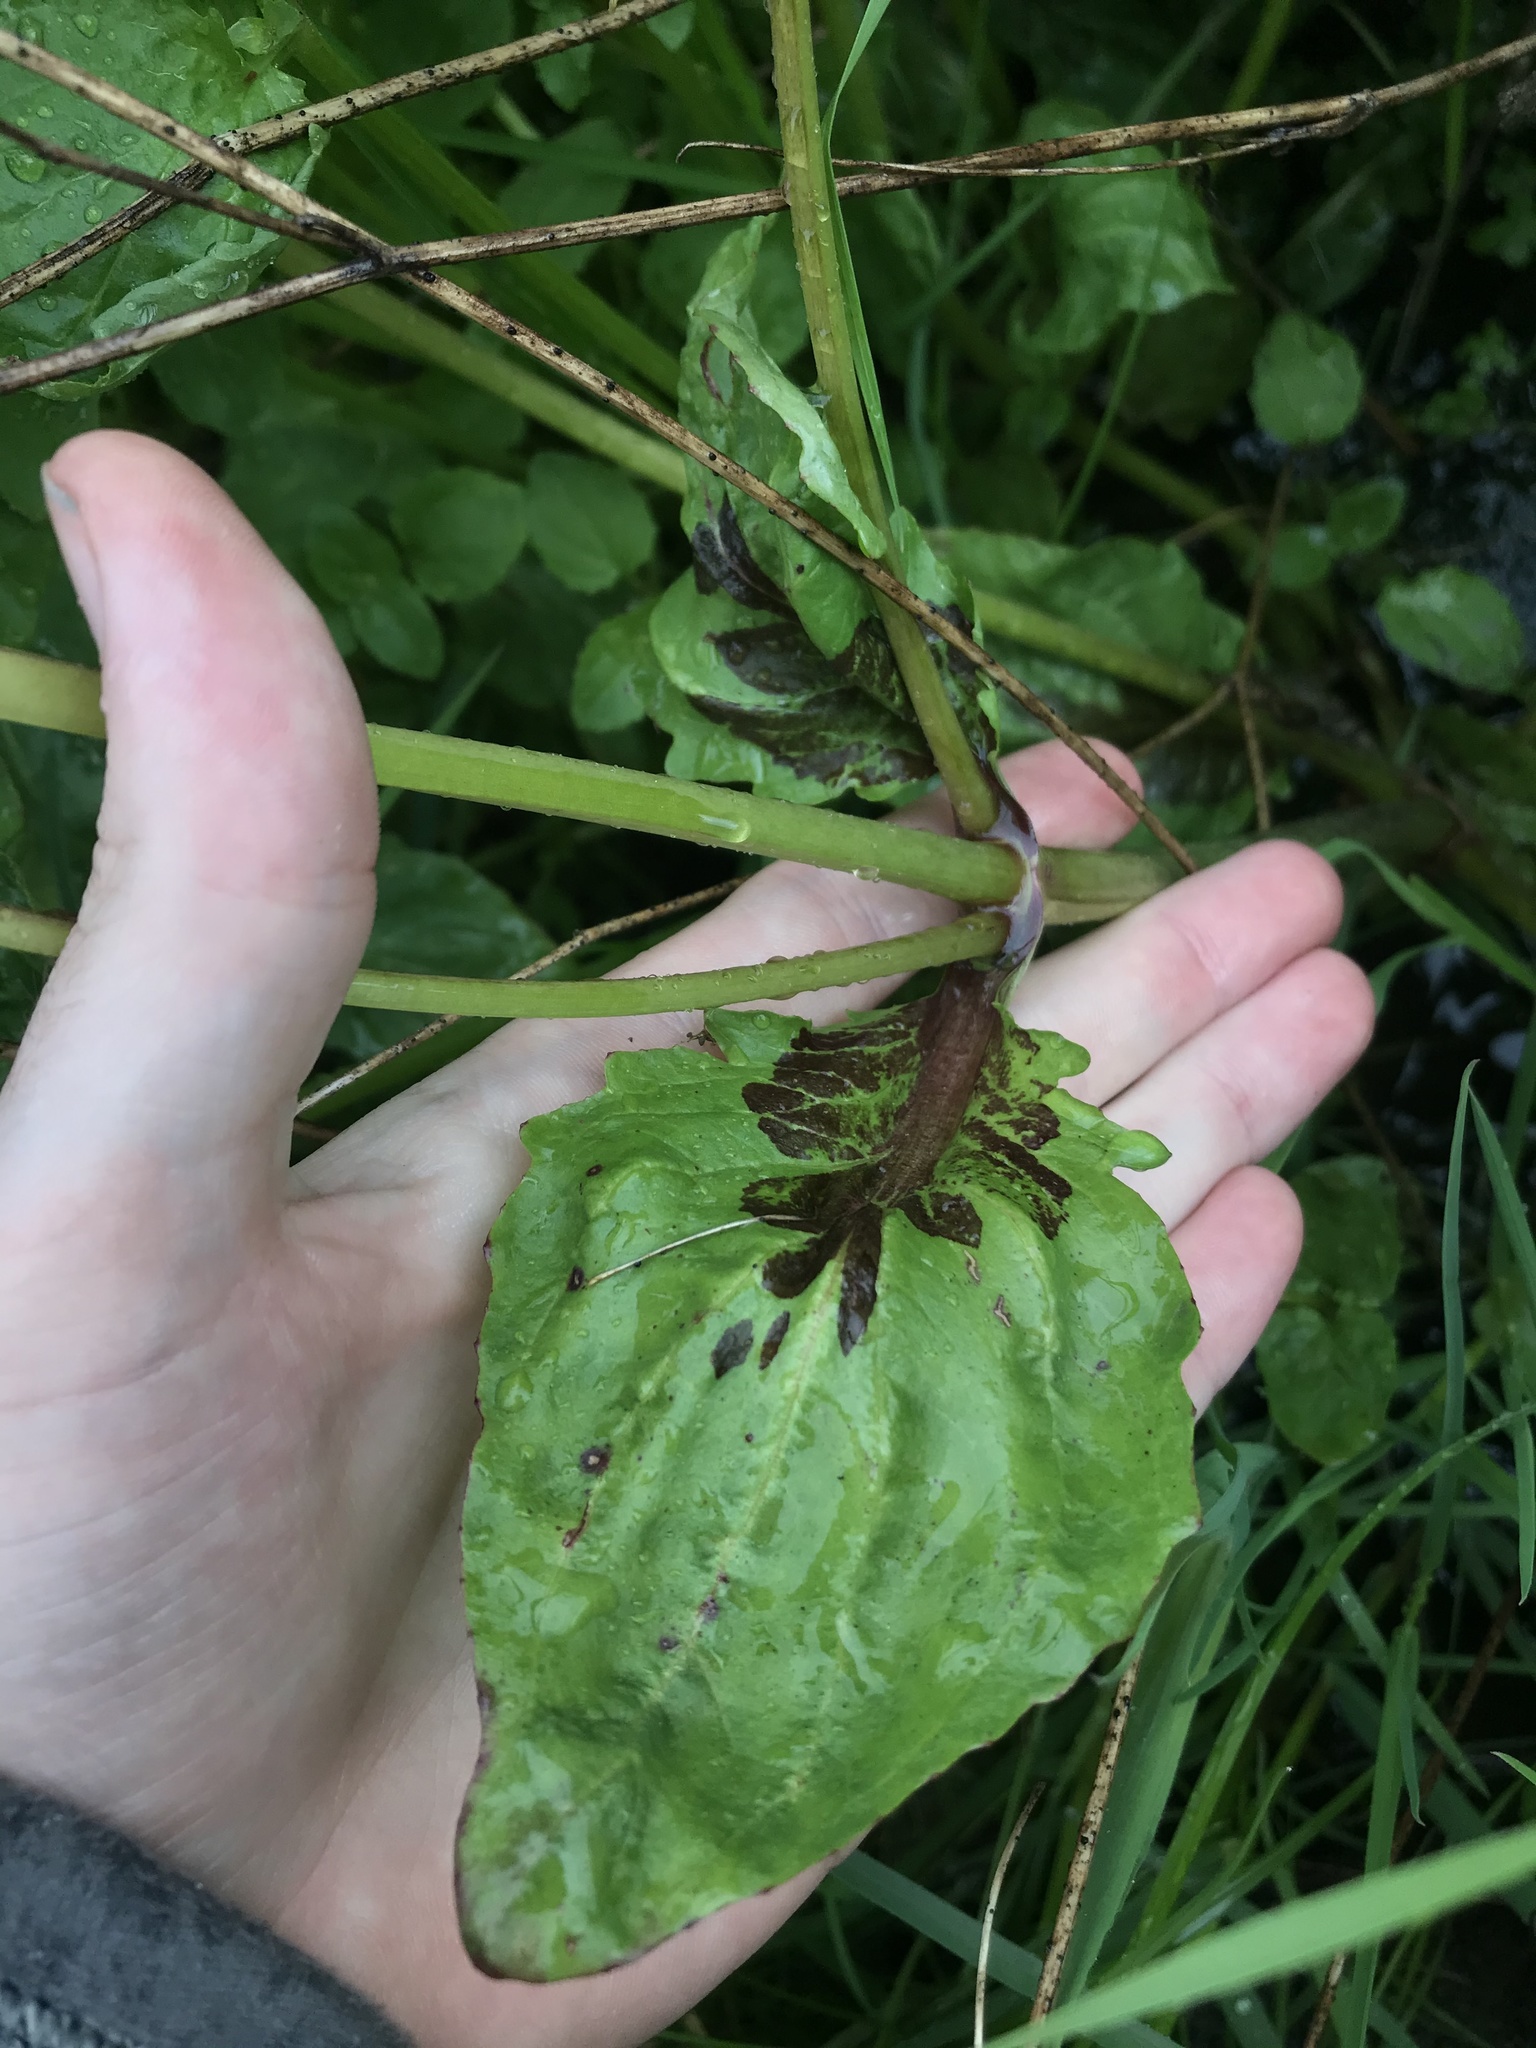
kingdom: Plantae
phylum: Tracheophyta
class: Magnoliopsida
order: Lamiales
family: Phrymaceae
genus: Erythranthe
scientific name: Erythranthe guttata
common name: Monkeyflower
